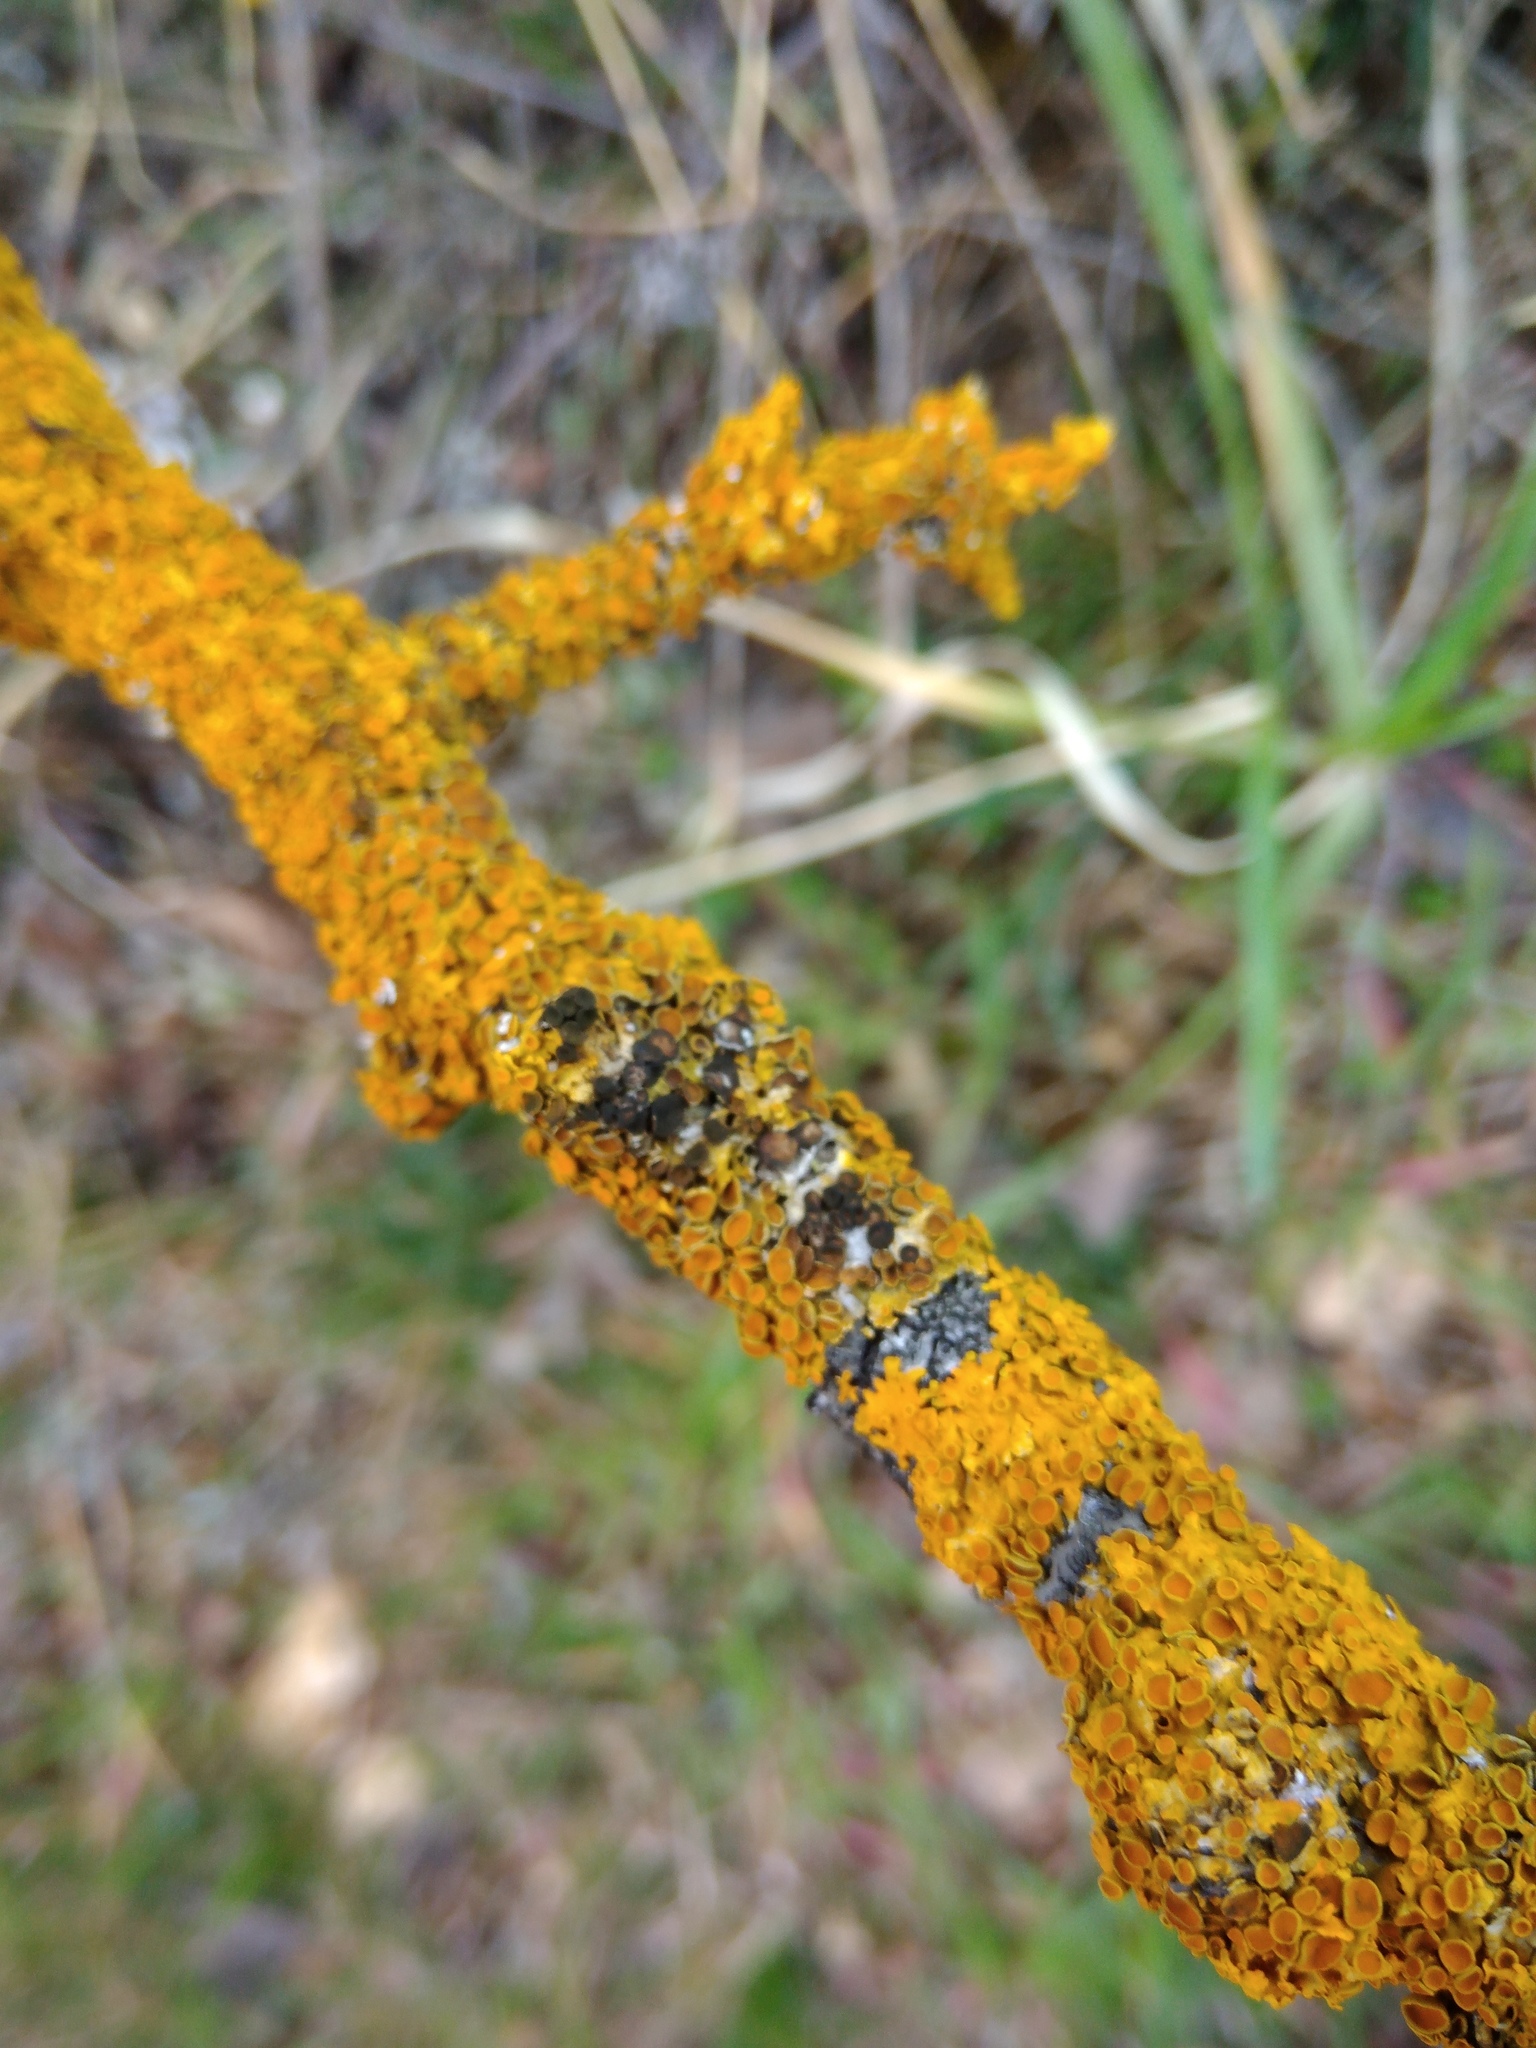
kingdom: Fungi
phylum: Ascomycota
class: Dothideomycetes
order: Mycosphaerellales
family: Teratosphaeriaceae
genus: Xanthoriicola
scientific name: Xanthoriicola physciae
